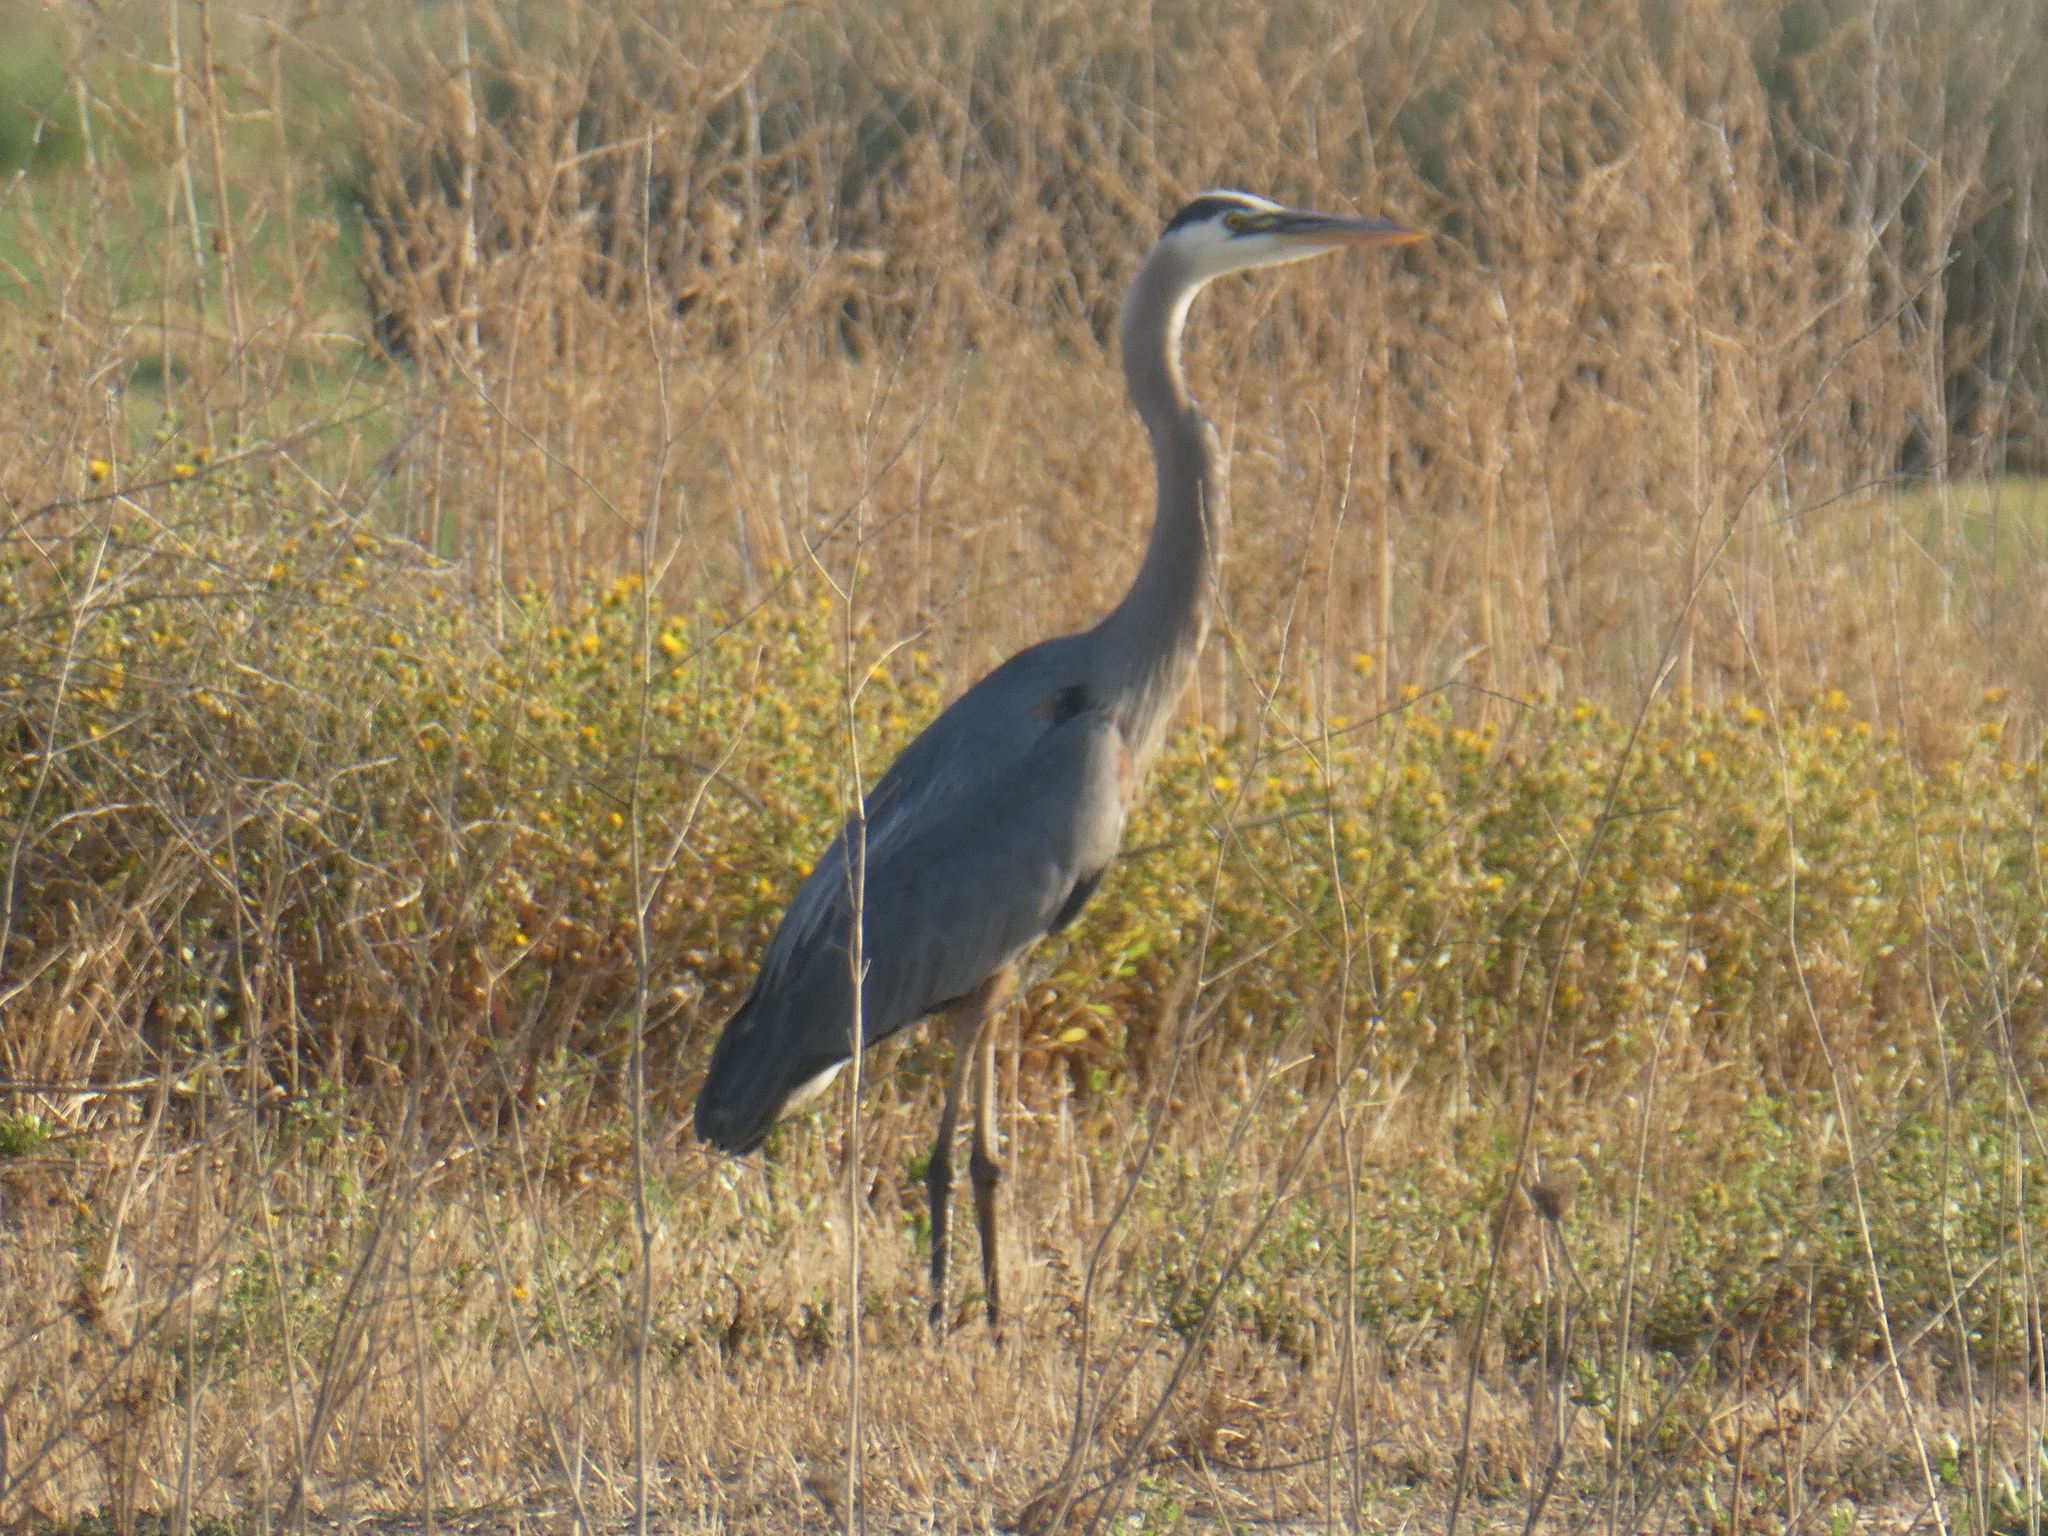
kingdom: Animalia
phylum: Chordata
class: Aves
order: Pelecaniformes
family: Ardeidae
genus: Ardea
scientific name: Ardea herodias
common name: Great blue heron
